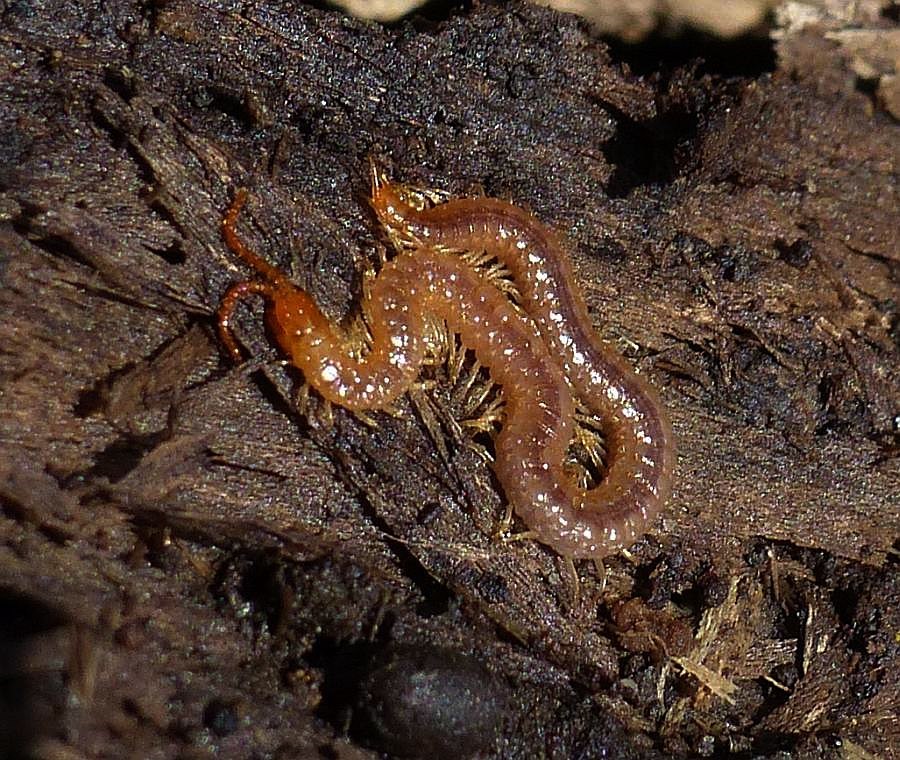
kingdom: Animalia
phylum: Arthropoda
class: Chilopoda
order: Geophilomorpha
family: Geophilidae
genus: Geophilus
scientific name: Geophilus vittatus
